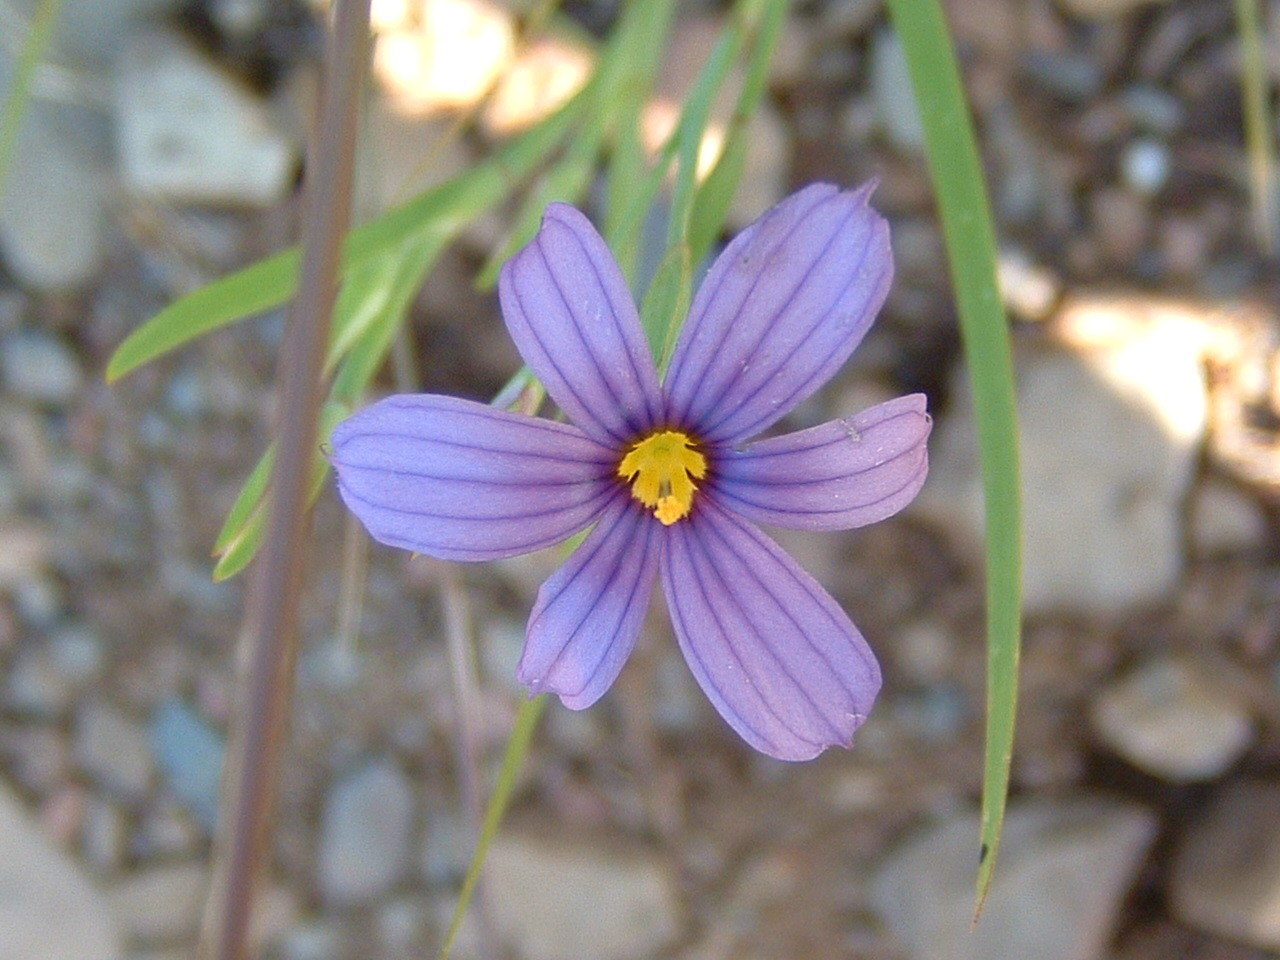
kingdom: Plantae
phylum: Tracheophyta
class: Liliopsida
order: Asparagales
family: Iridaceae
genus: Sisyrinchium
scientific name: Sisyrinchium bellum
